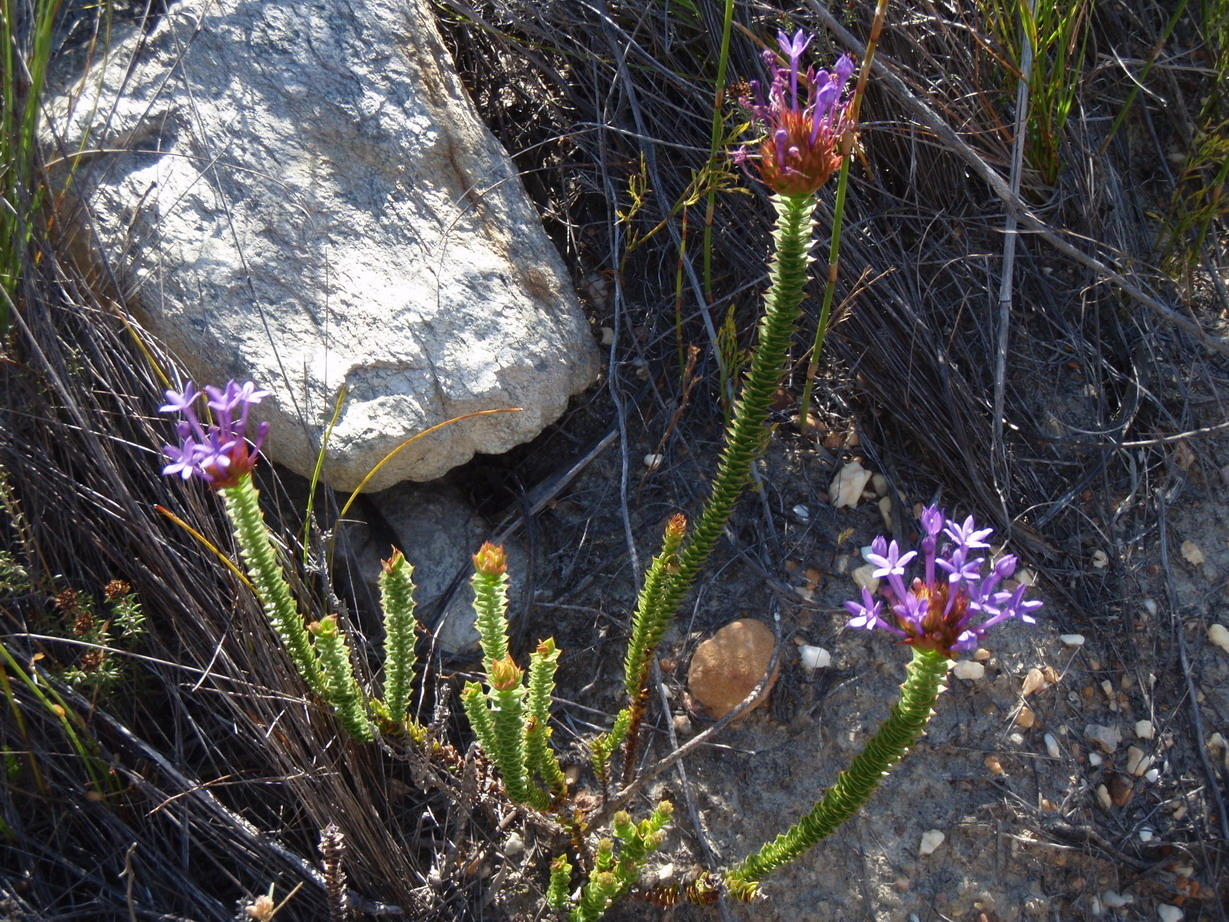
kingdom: Plantae
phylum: Tracheophyta
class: Magnoliopsida
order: Asterales
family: Campanulaceae
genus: Rhigiophyllum
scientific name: Rhigiophyllum squarrosum
